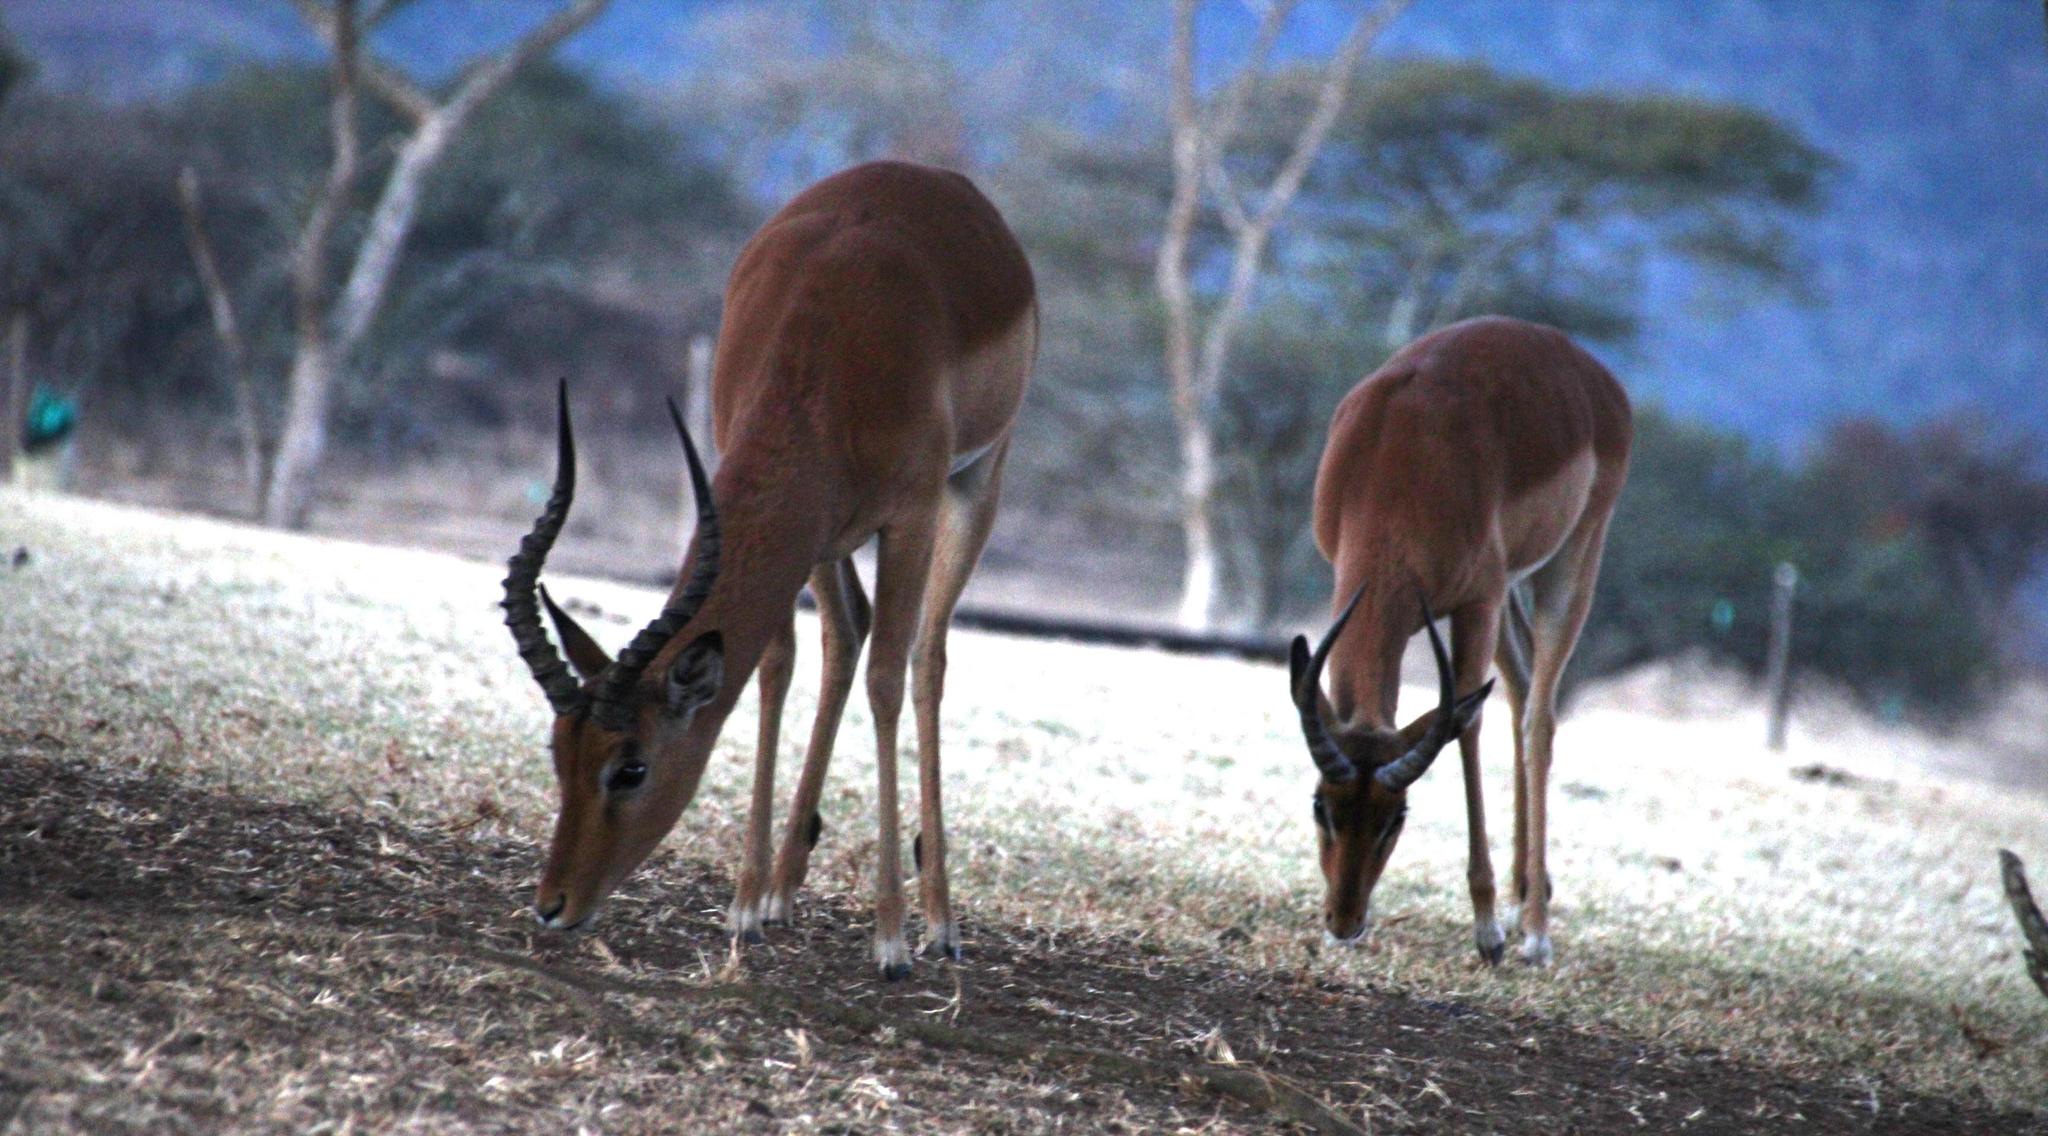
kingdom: Animalia
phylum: Chordata
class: Mammalia
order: Artiodactyla
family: Bovidae
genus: Aepyceros
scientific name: Aepyceros melampus
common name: Impala
